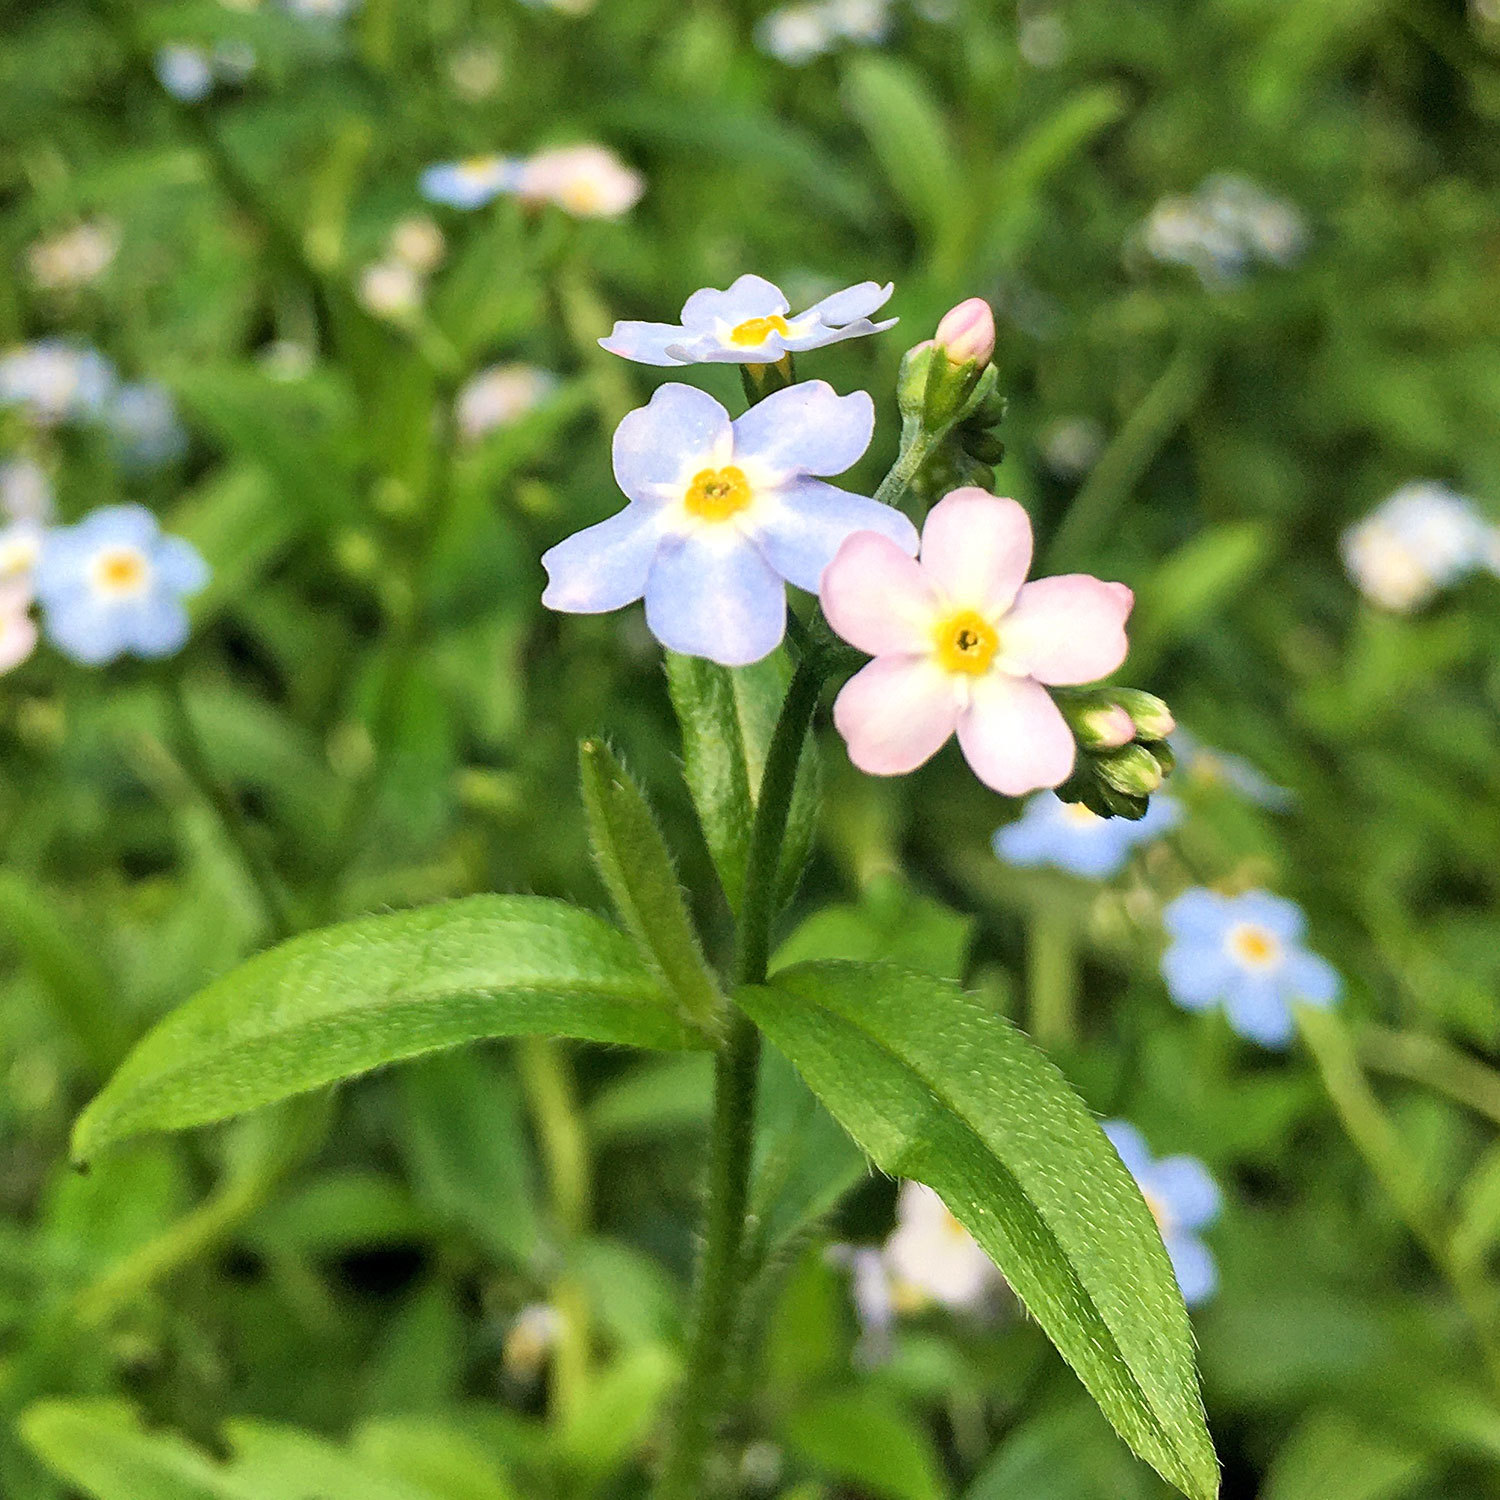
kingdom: Plantae
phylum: Tracheophyta
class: Magnoliopsida
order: Boraginales
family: Boraginaceae
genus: Myosotis
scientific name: Myosotis scorpioides
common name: Water forget-me-not
